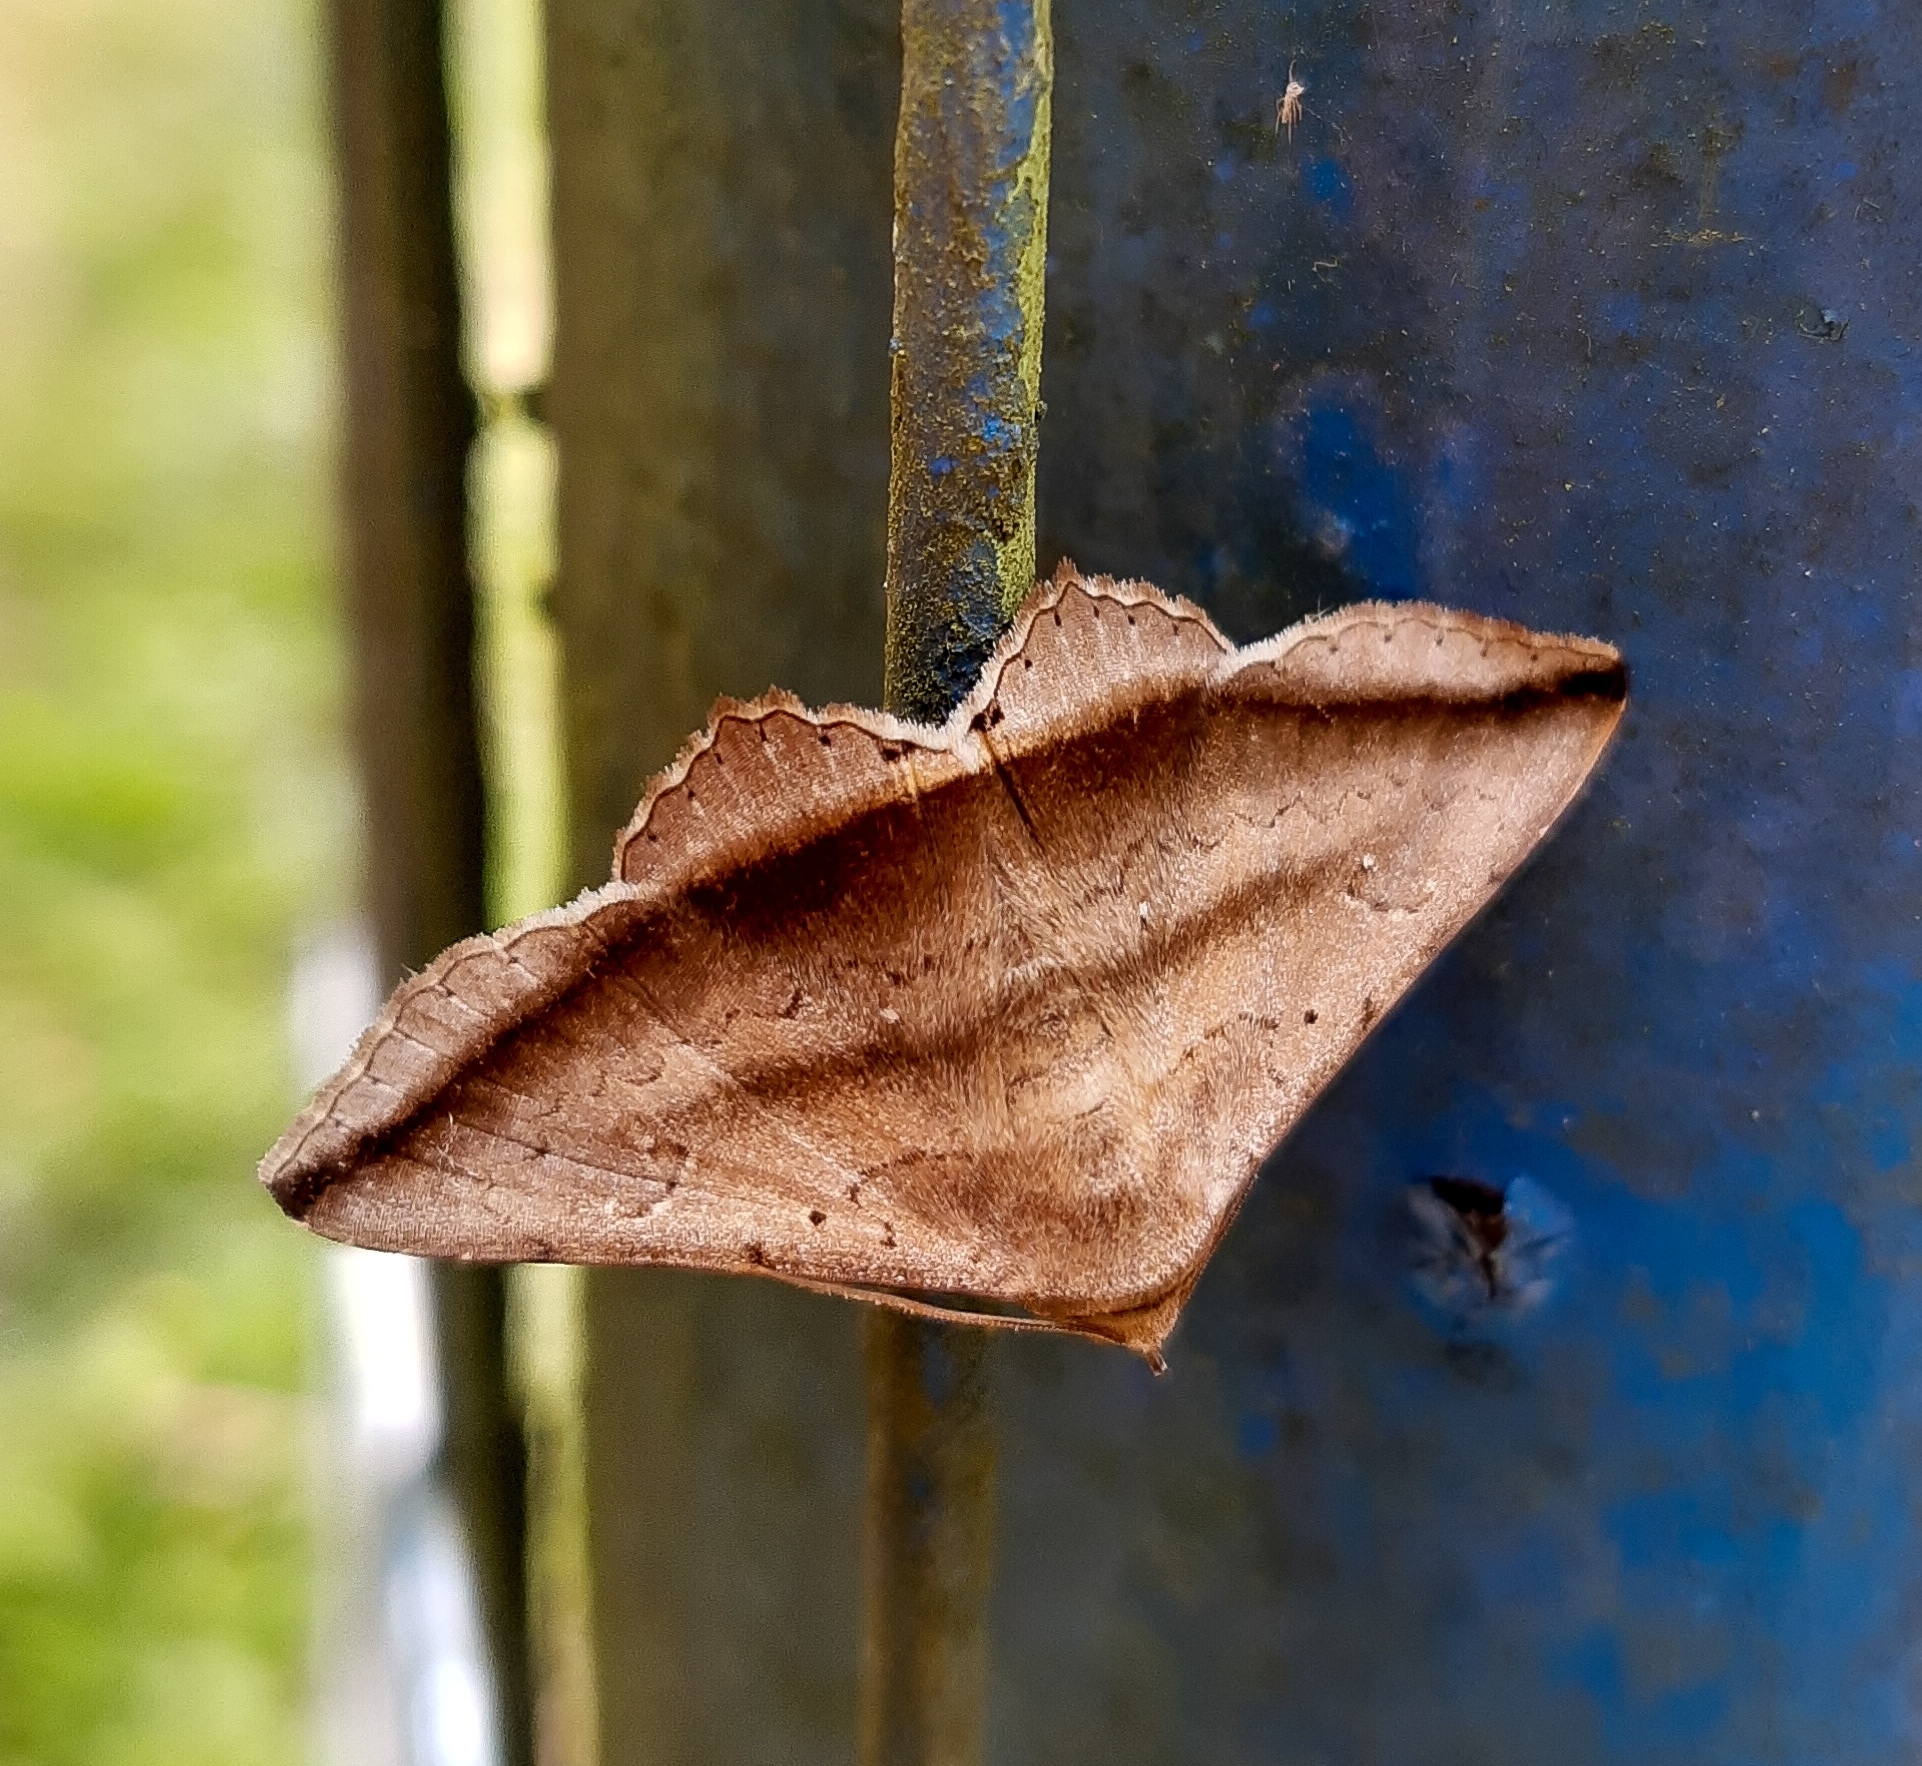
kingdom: Animalia
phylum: Arthropoda
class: Insecta
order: Lepidoptera
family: Erebidae
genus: Lesmone
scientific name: Lesmone formularis
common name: Lesmone moth
